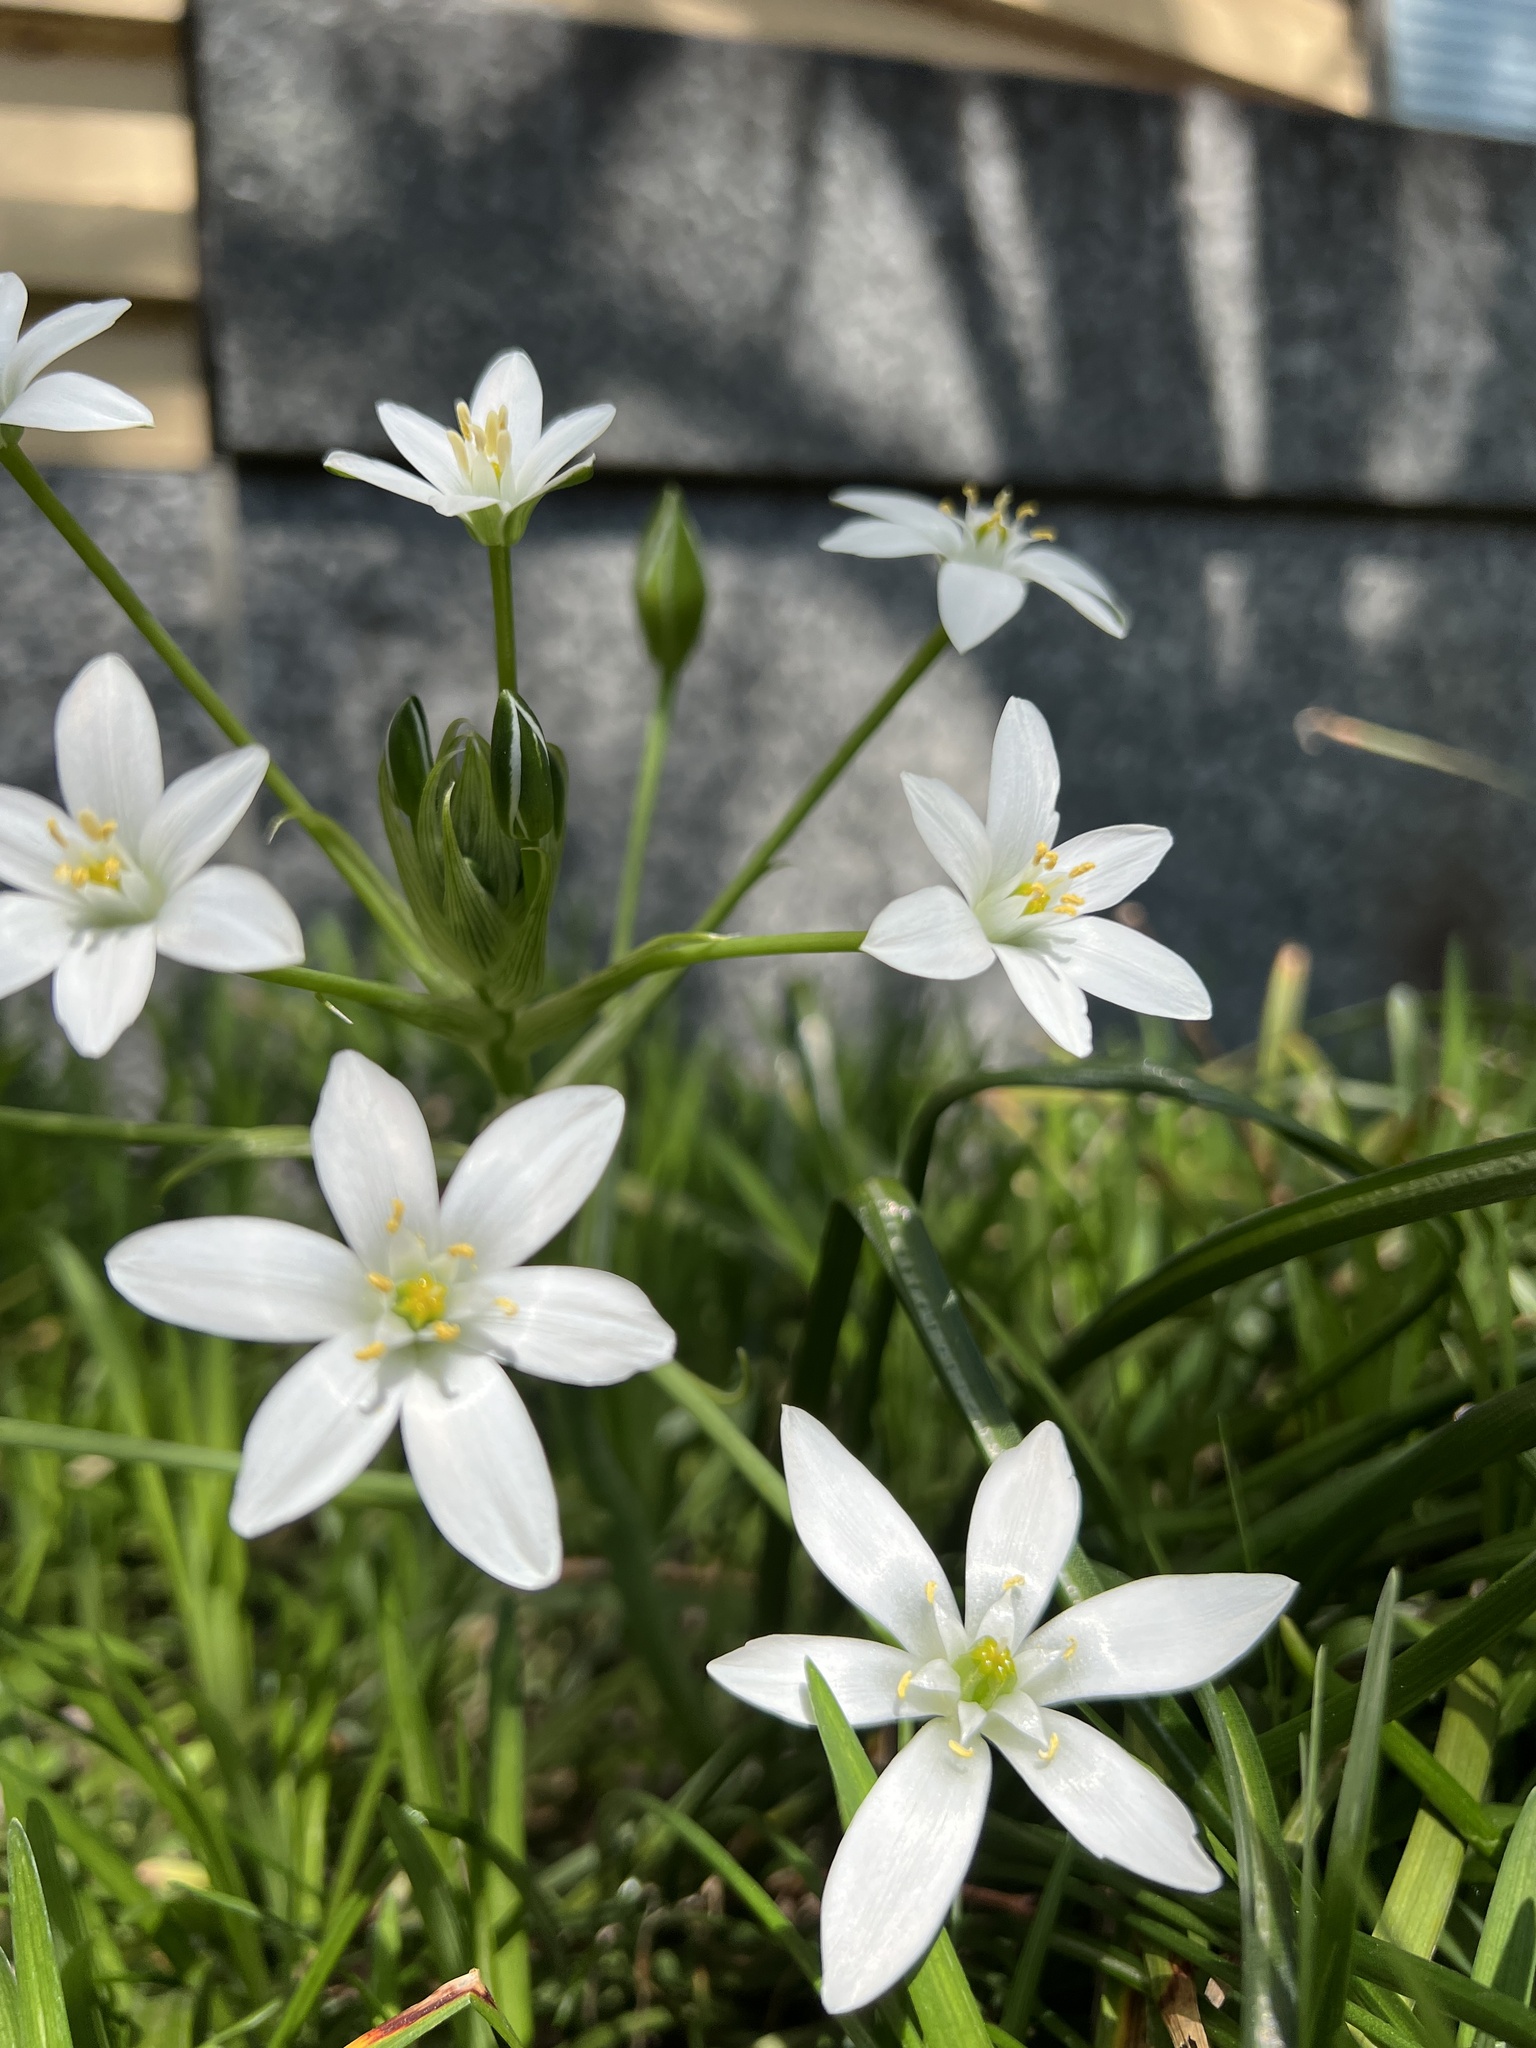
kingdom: Plantae
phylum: Tracheophyta
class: Liliopsida
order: Asparagales
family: Asparagaceae
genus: Ornithogalum
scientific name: Ornithogalum umbellatum
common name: Garden star-of-bethlehem
